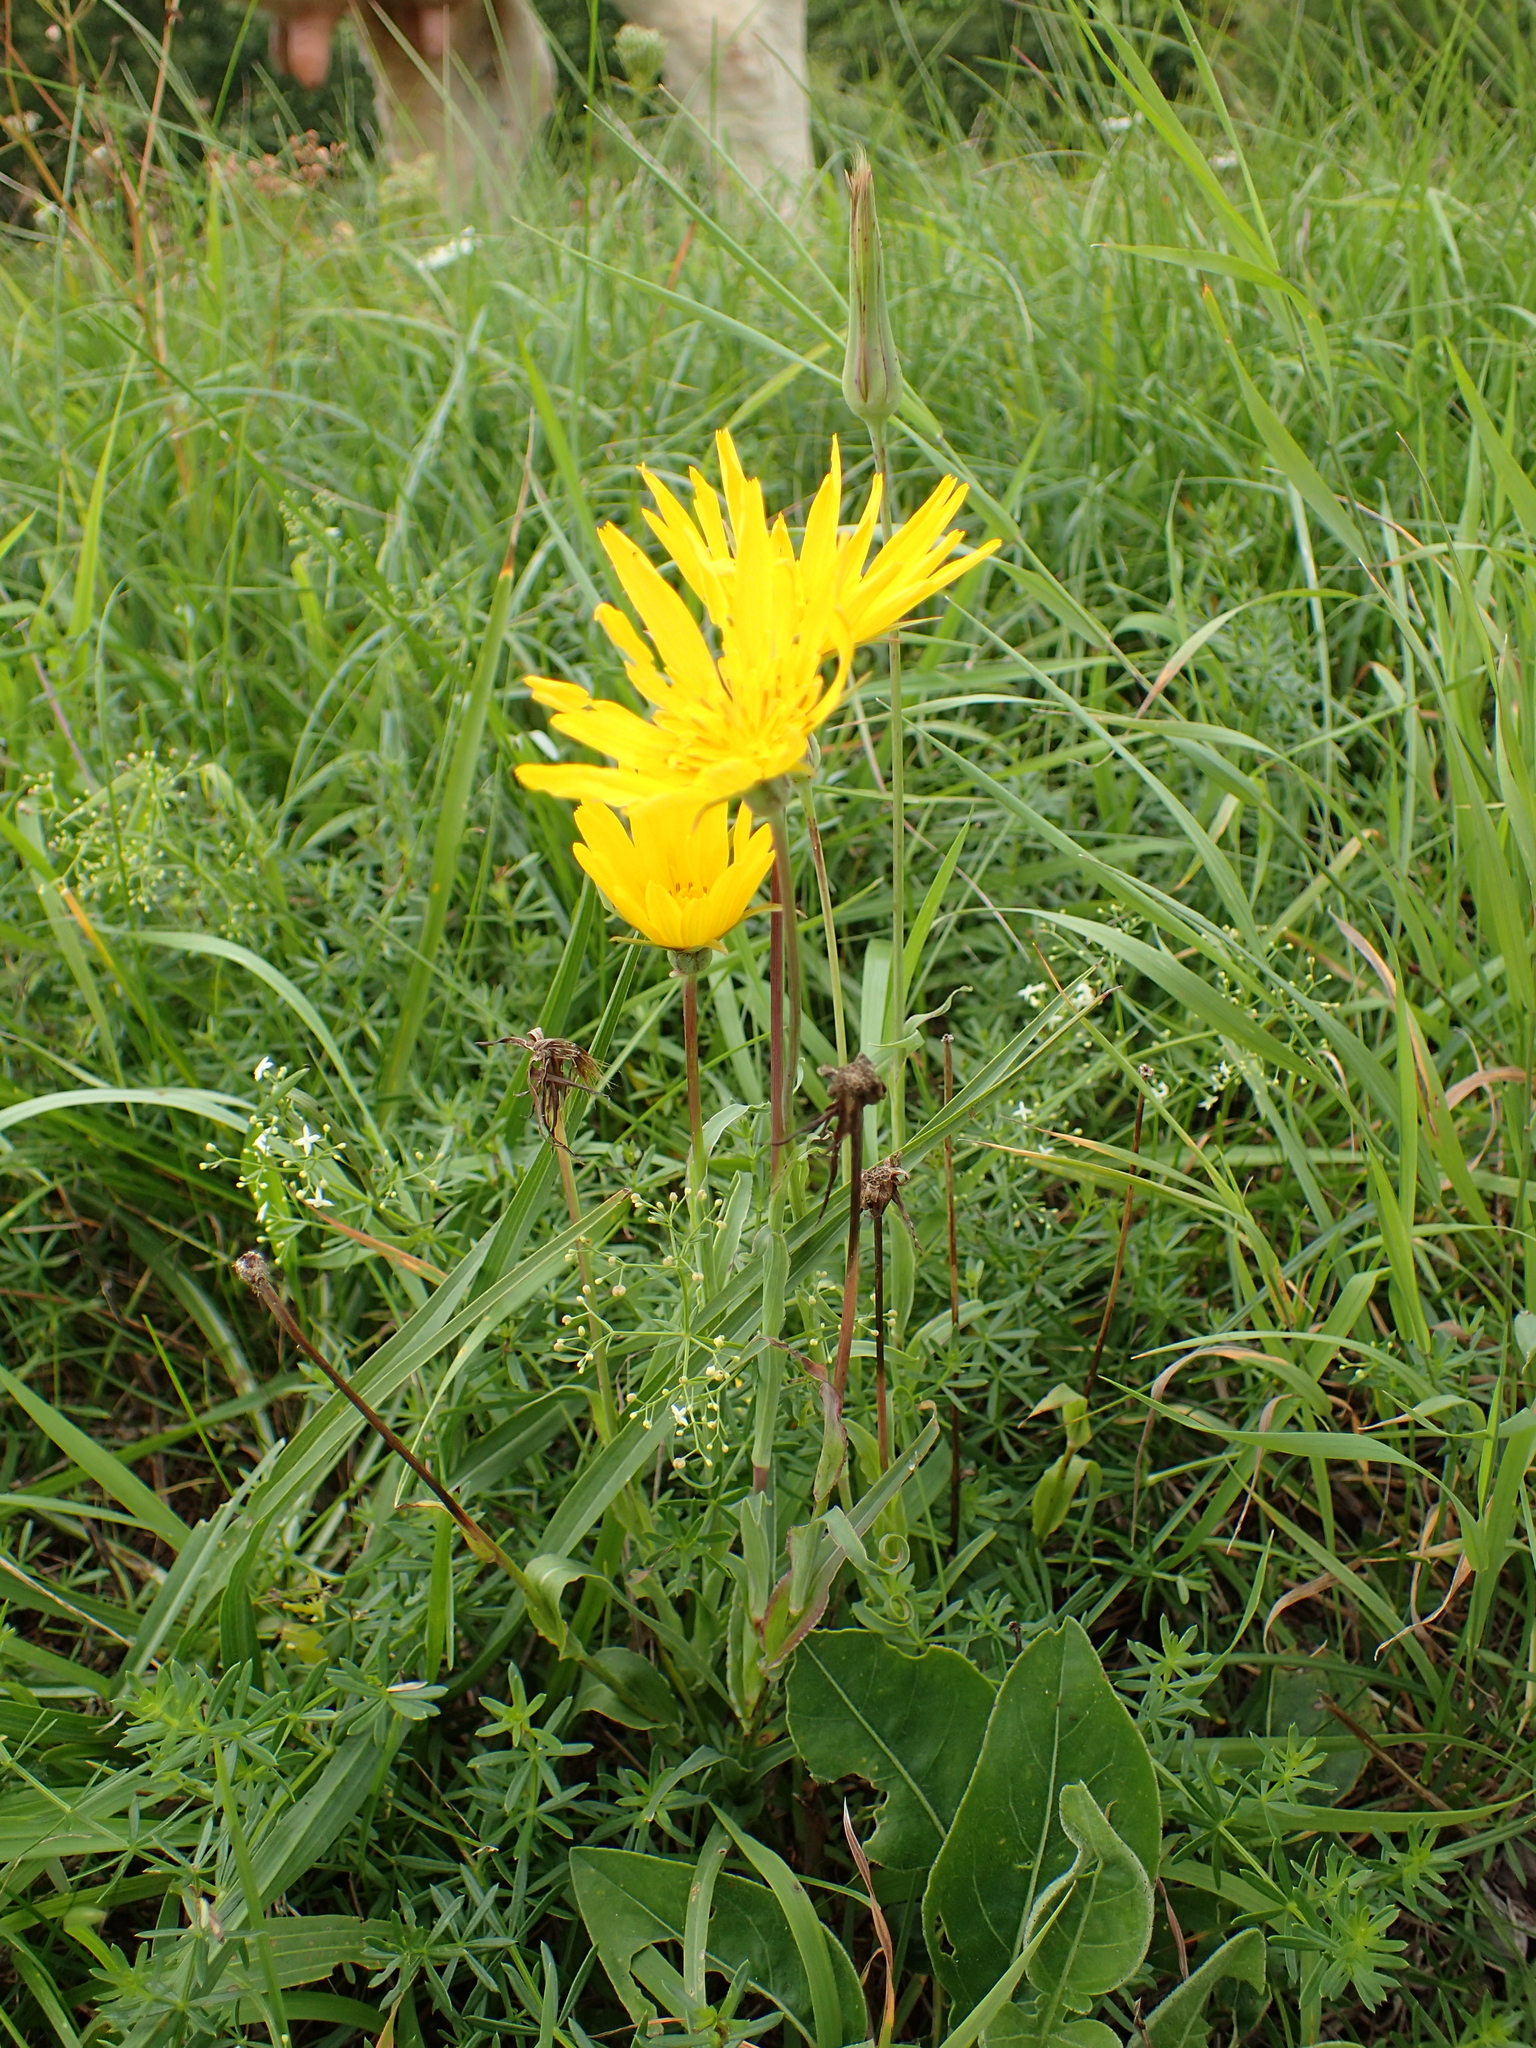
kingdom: Plantae
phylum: Tracheophyta
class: Magnoliopsida
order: Asterales
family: Asteraceae
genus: Tragopogon
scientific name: Tragopogon orientalis
